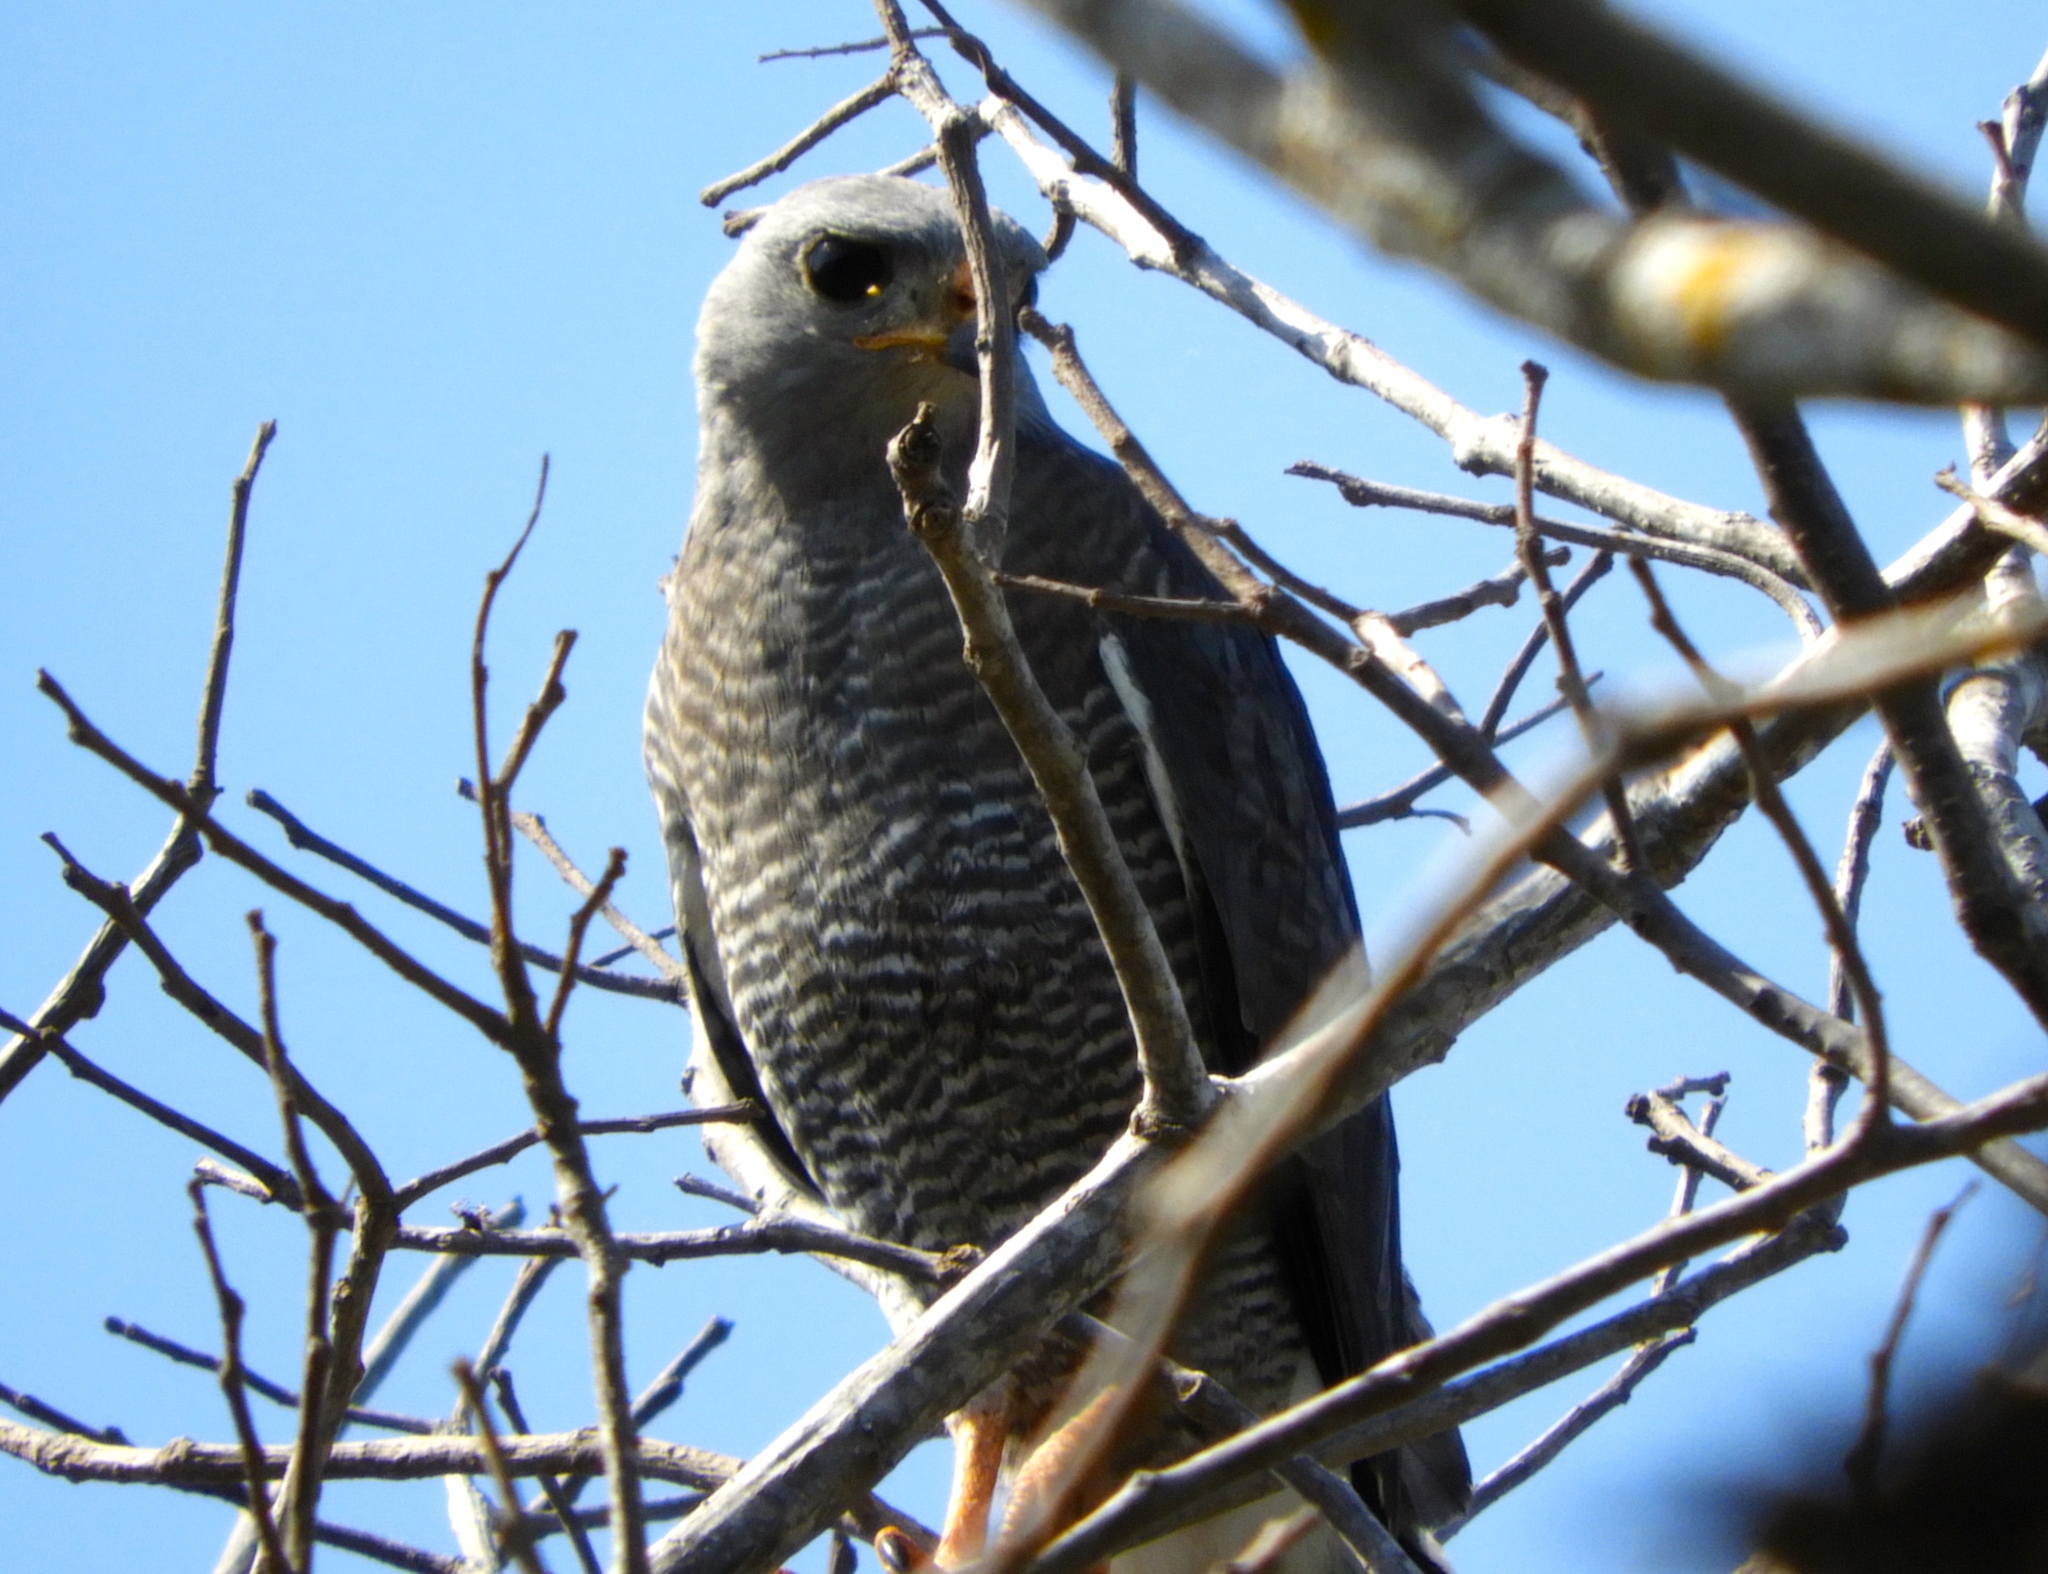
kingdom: Animalia
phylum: Chordata
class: Aves
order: Accipitriformes
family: Accipitridae
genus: Buteo
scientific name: Buteo nitidus
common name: Grey-lined hawk
